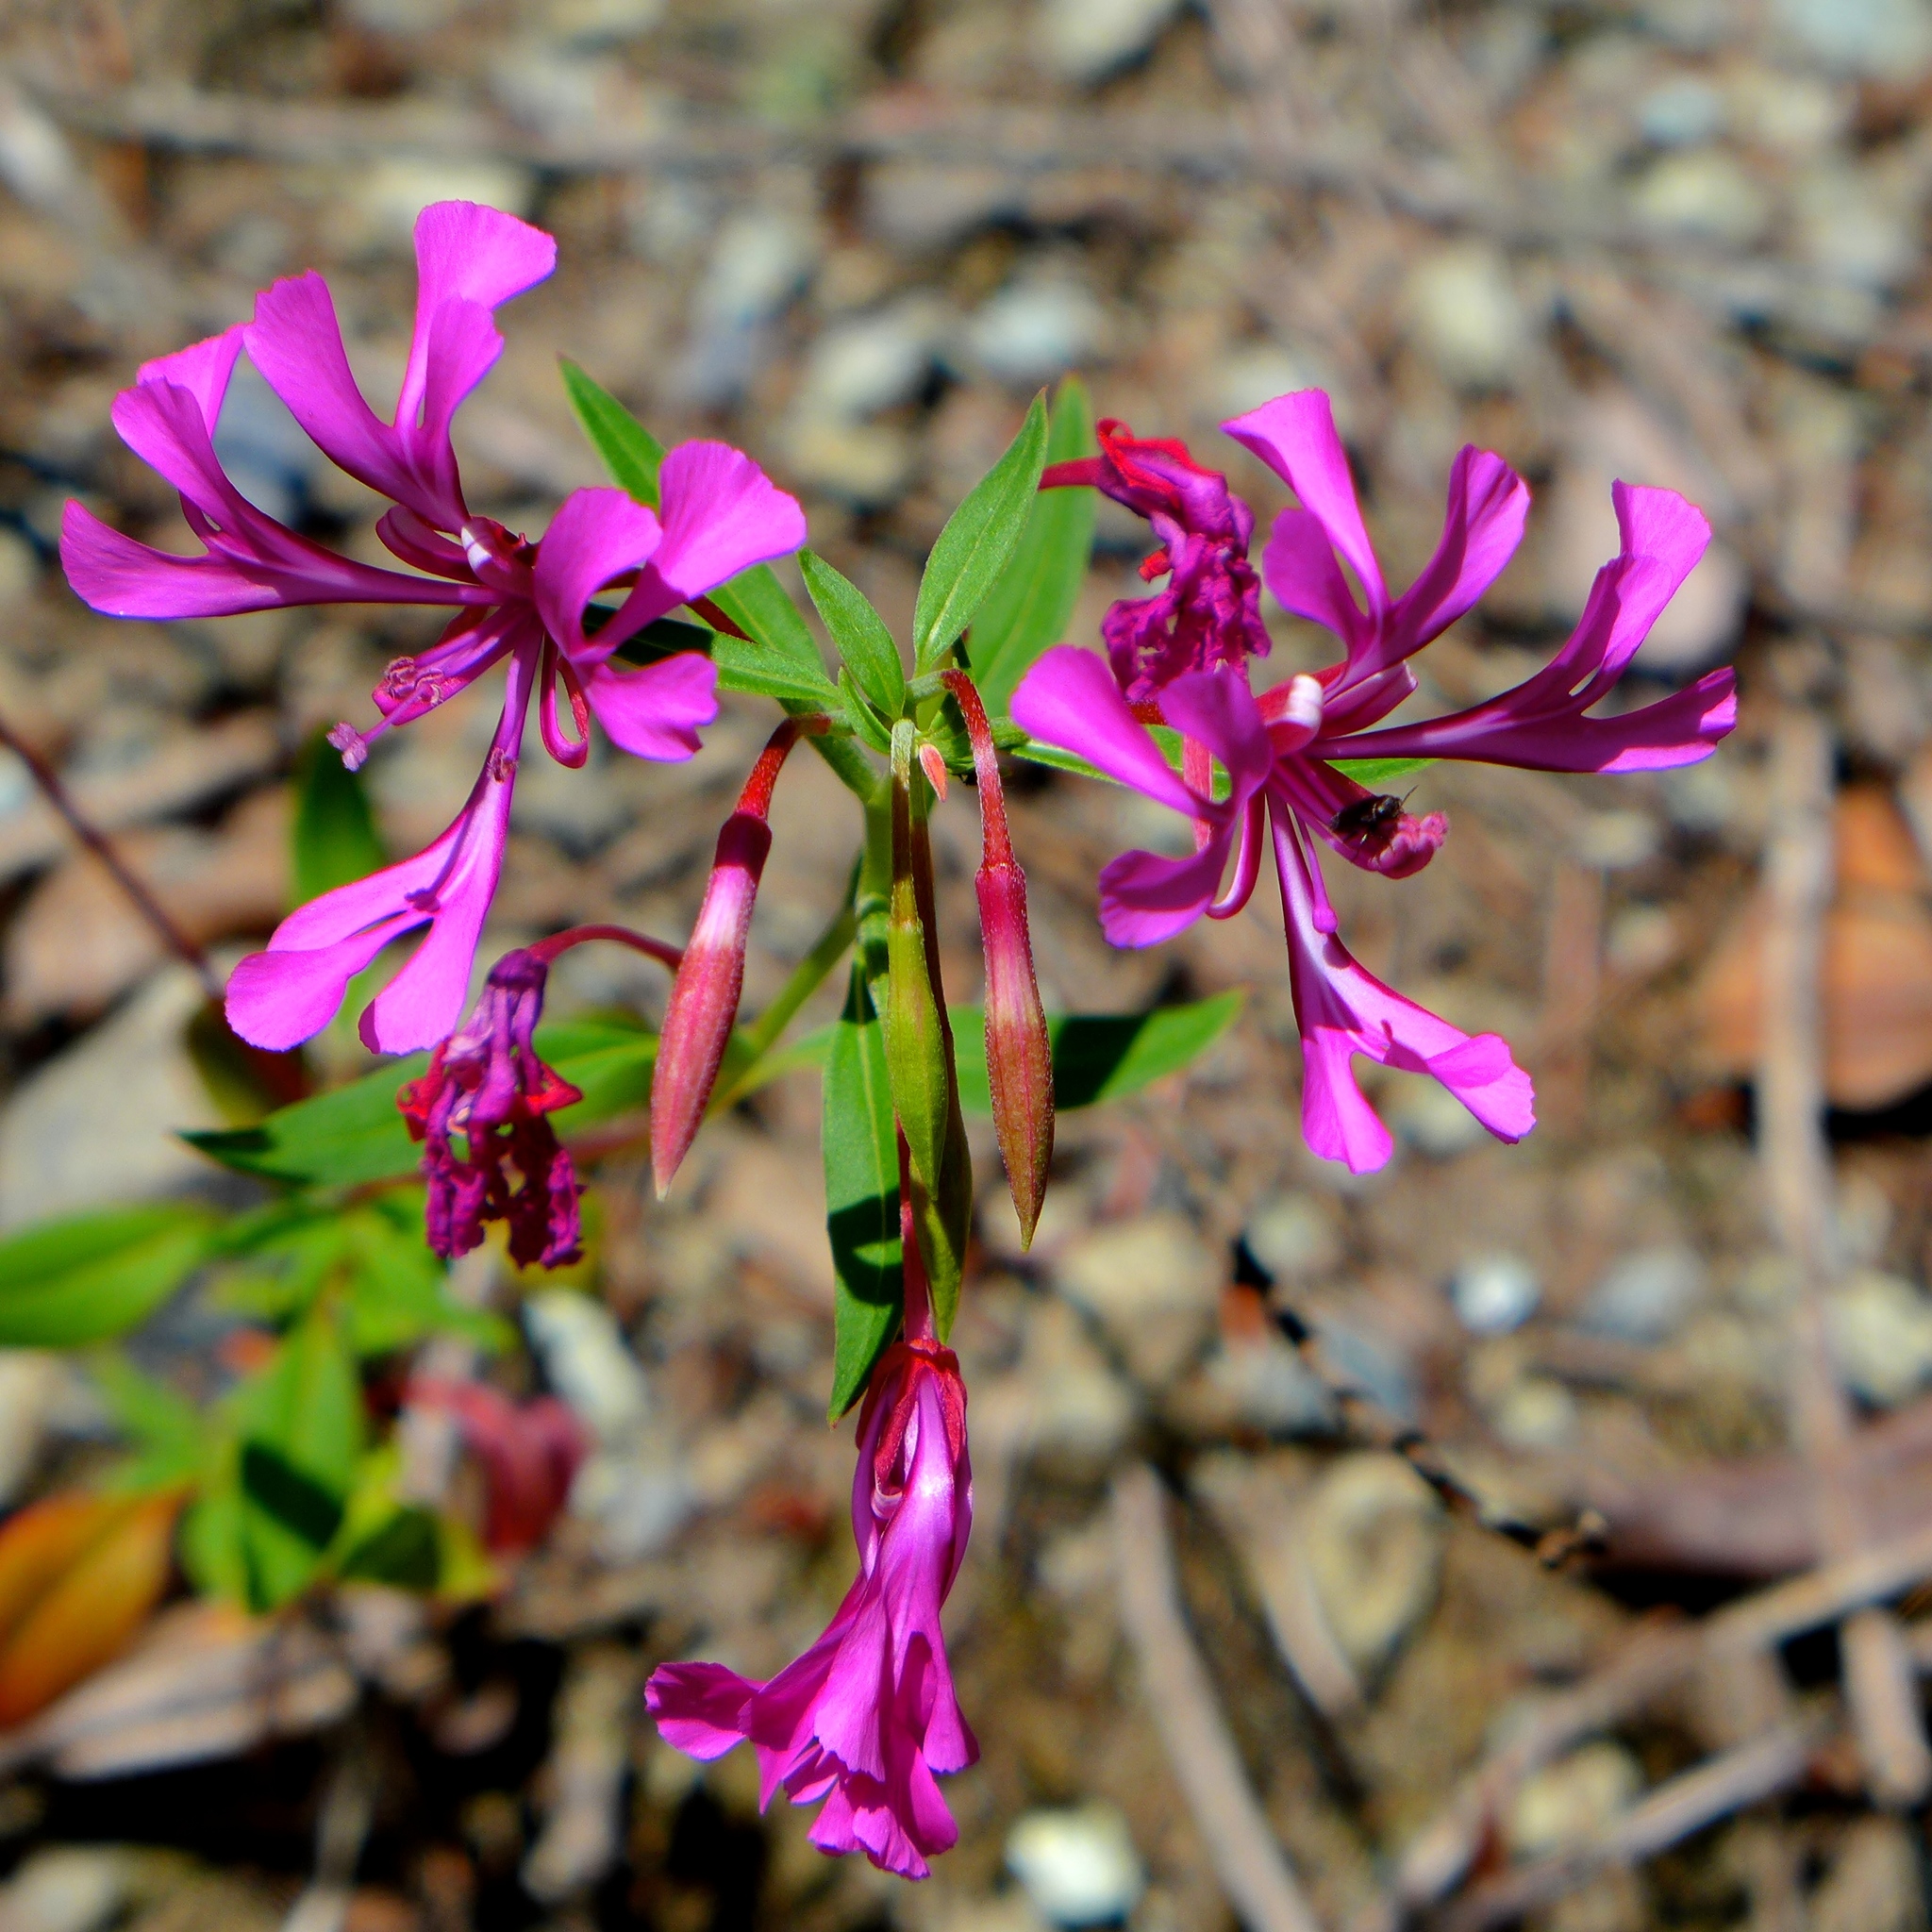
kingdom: Plantae
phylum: Tracheophyta
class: Magnoliopsida
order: Myrtales
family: Onagraceae
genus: Clarkia
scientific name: Clarkia concinna
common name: Red-ribbons
